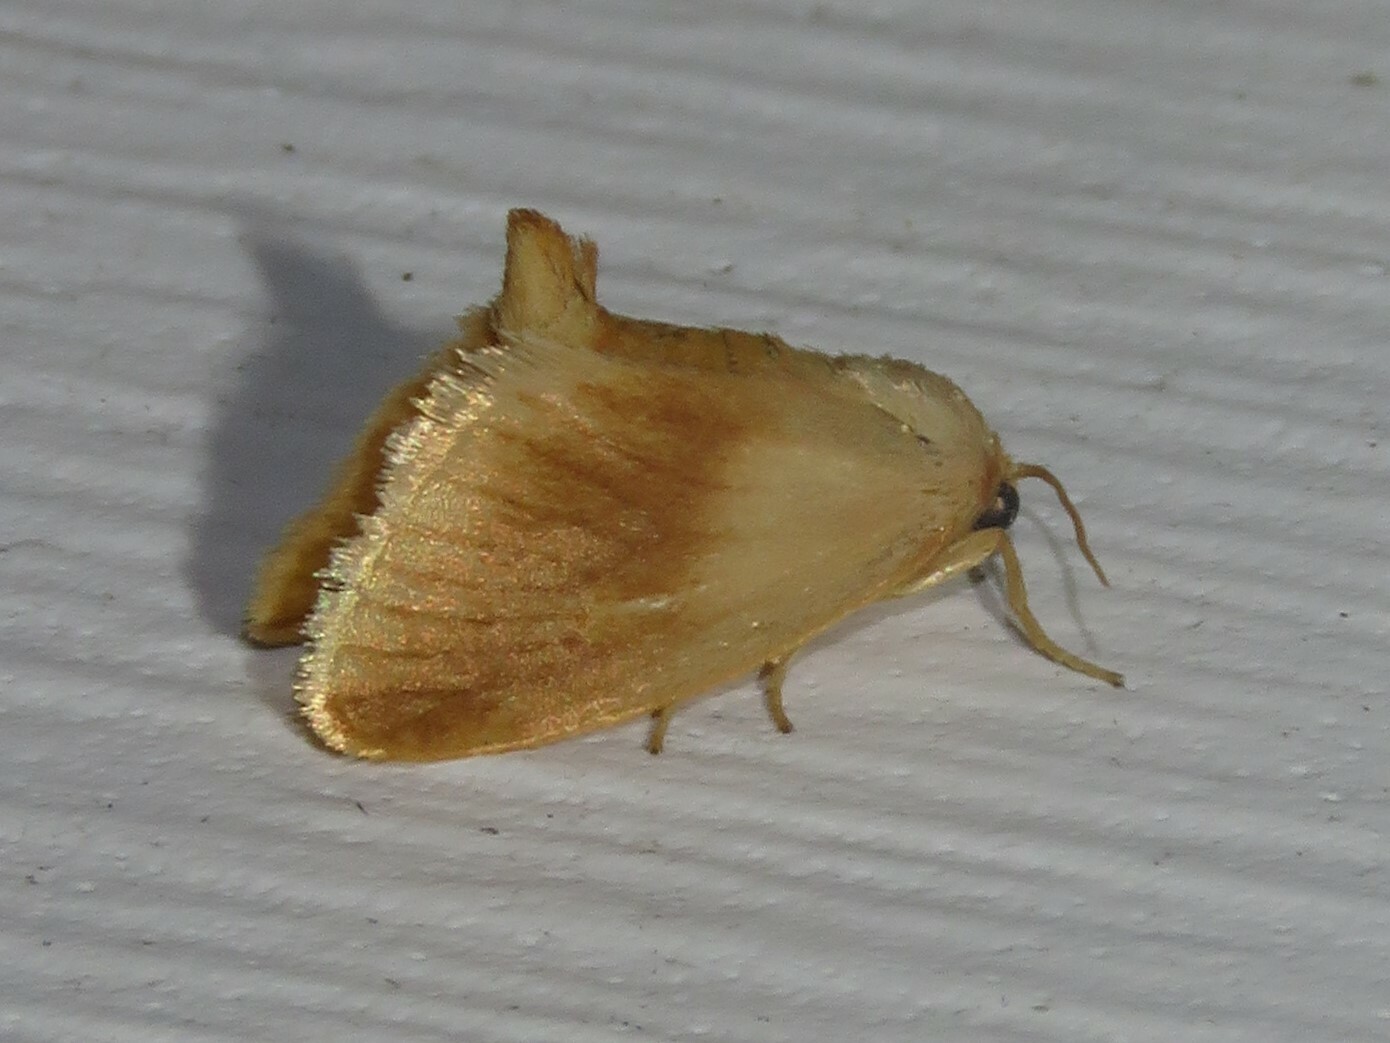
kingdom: Animalia
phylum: Arthropoda
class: Insecta
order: Lepidoptera
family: Limacodidae
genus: Tortricidia
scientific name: Tortricidia testacea
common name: Early button slug moth
